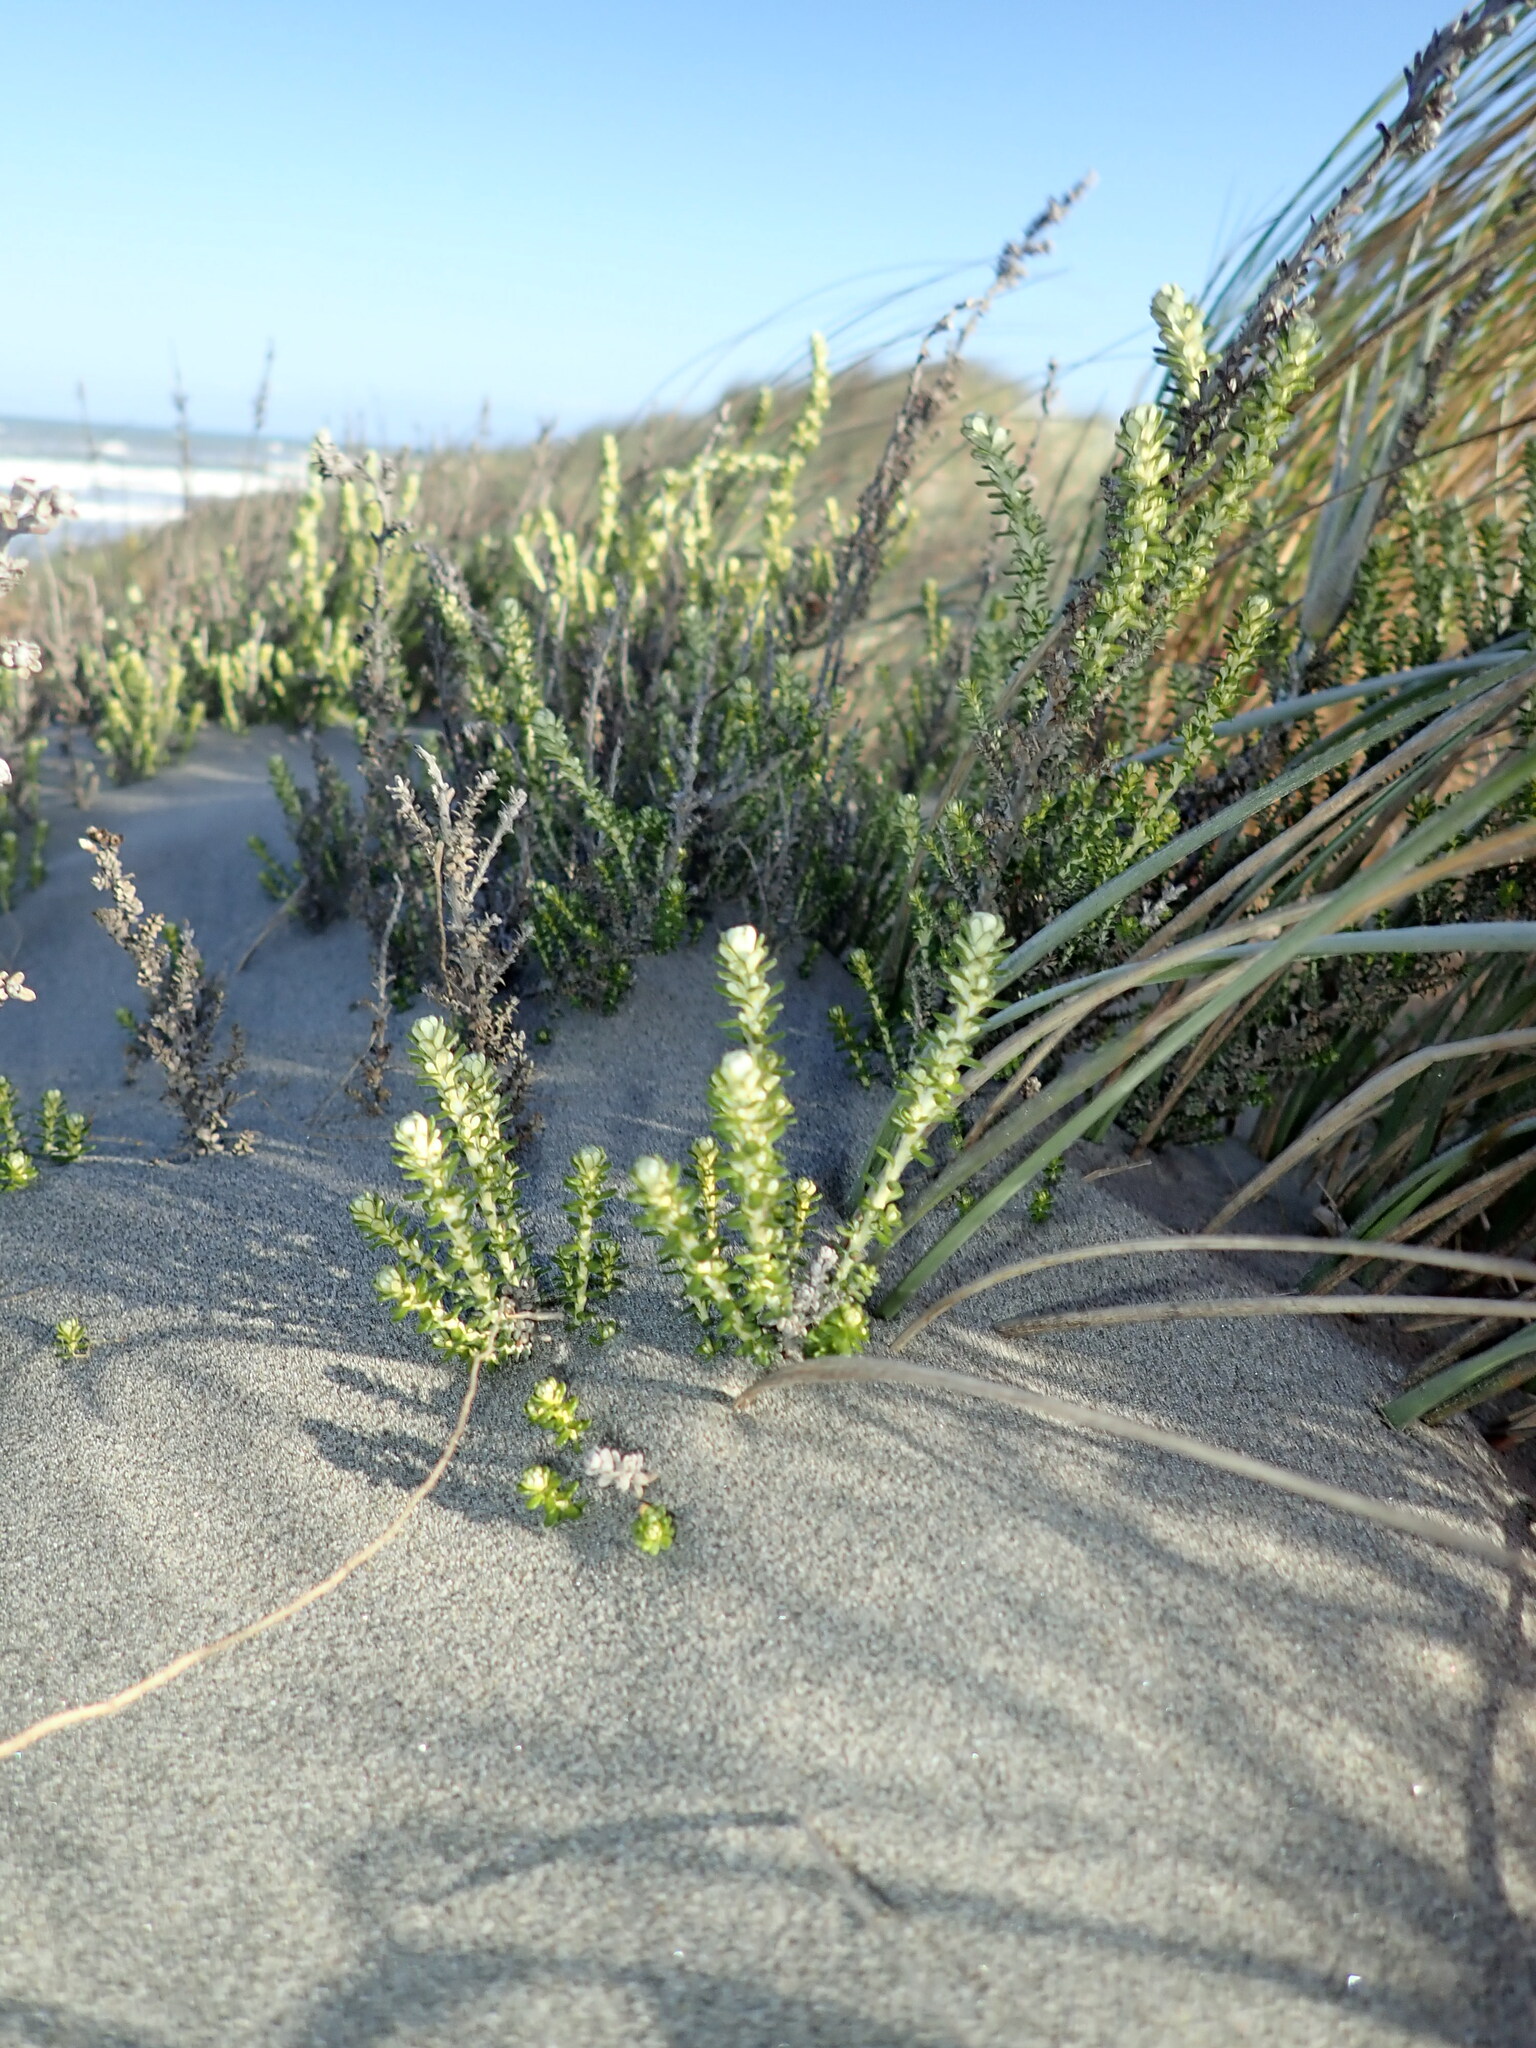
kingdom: Plantae
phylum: Tracheophyta
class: Magnoliopsida
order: Asterales
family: Asteraceae
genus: Ozothamnus
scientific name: Ozothamnus leptophyllus
